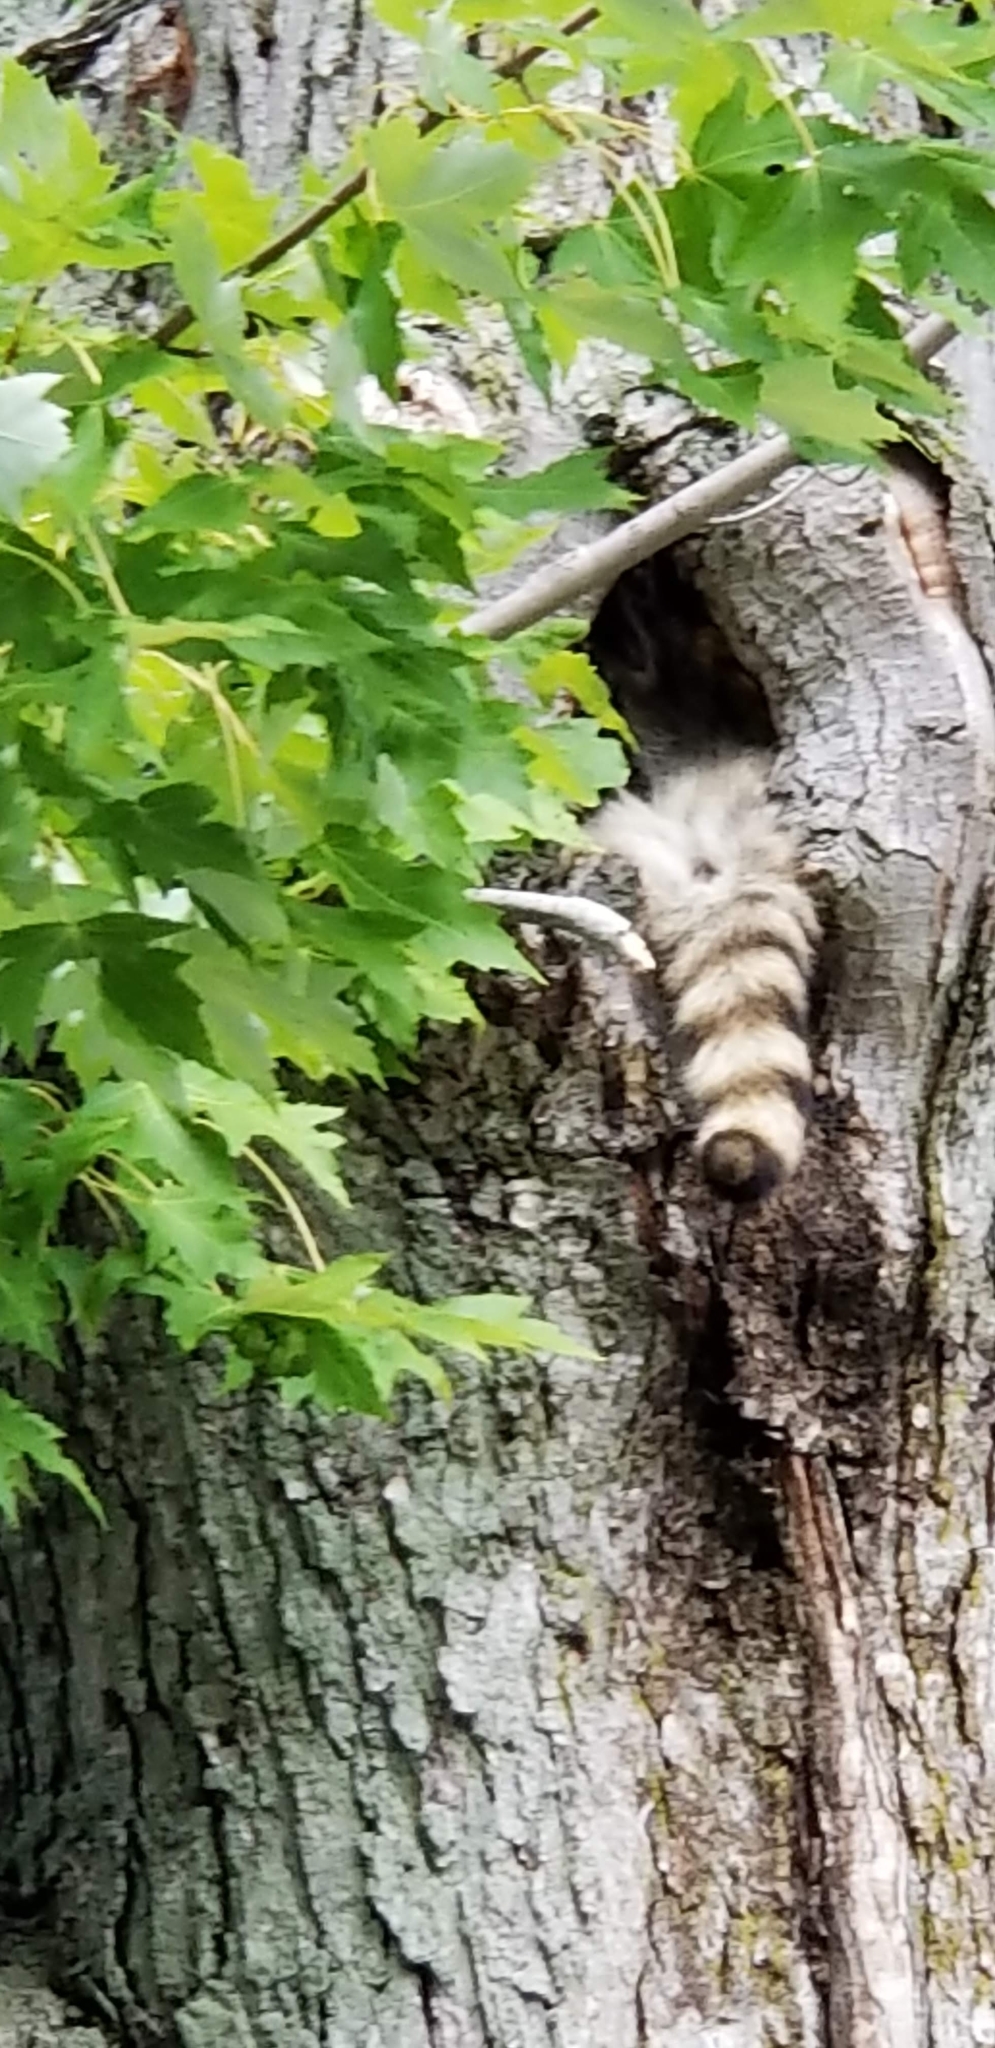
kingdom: Animalia
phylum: Chordata
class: Mammalia
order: Carnivora
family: Procyonidae
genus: Procyon
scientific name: Procyon lotor
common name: Raccoon
